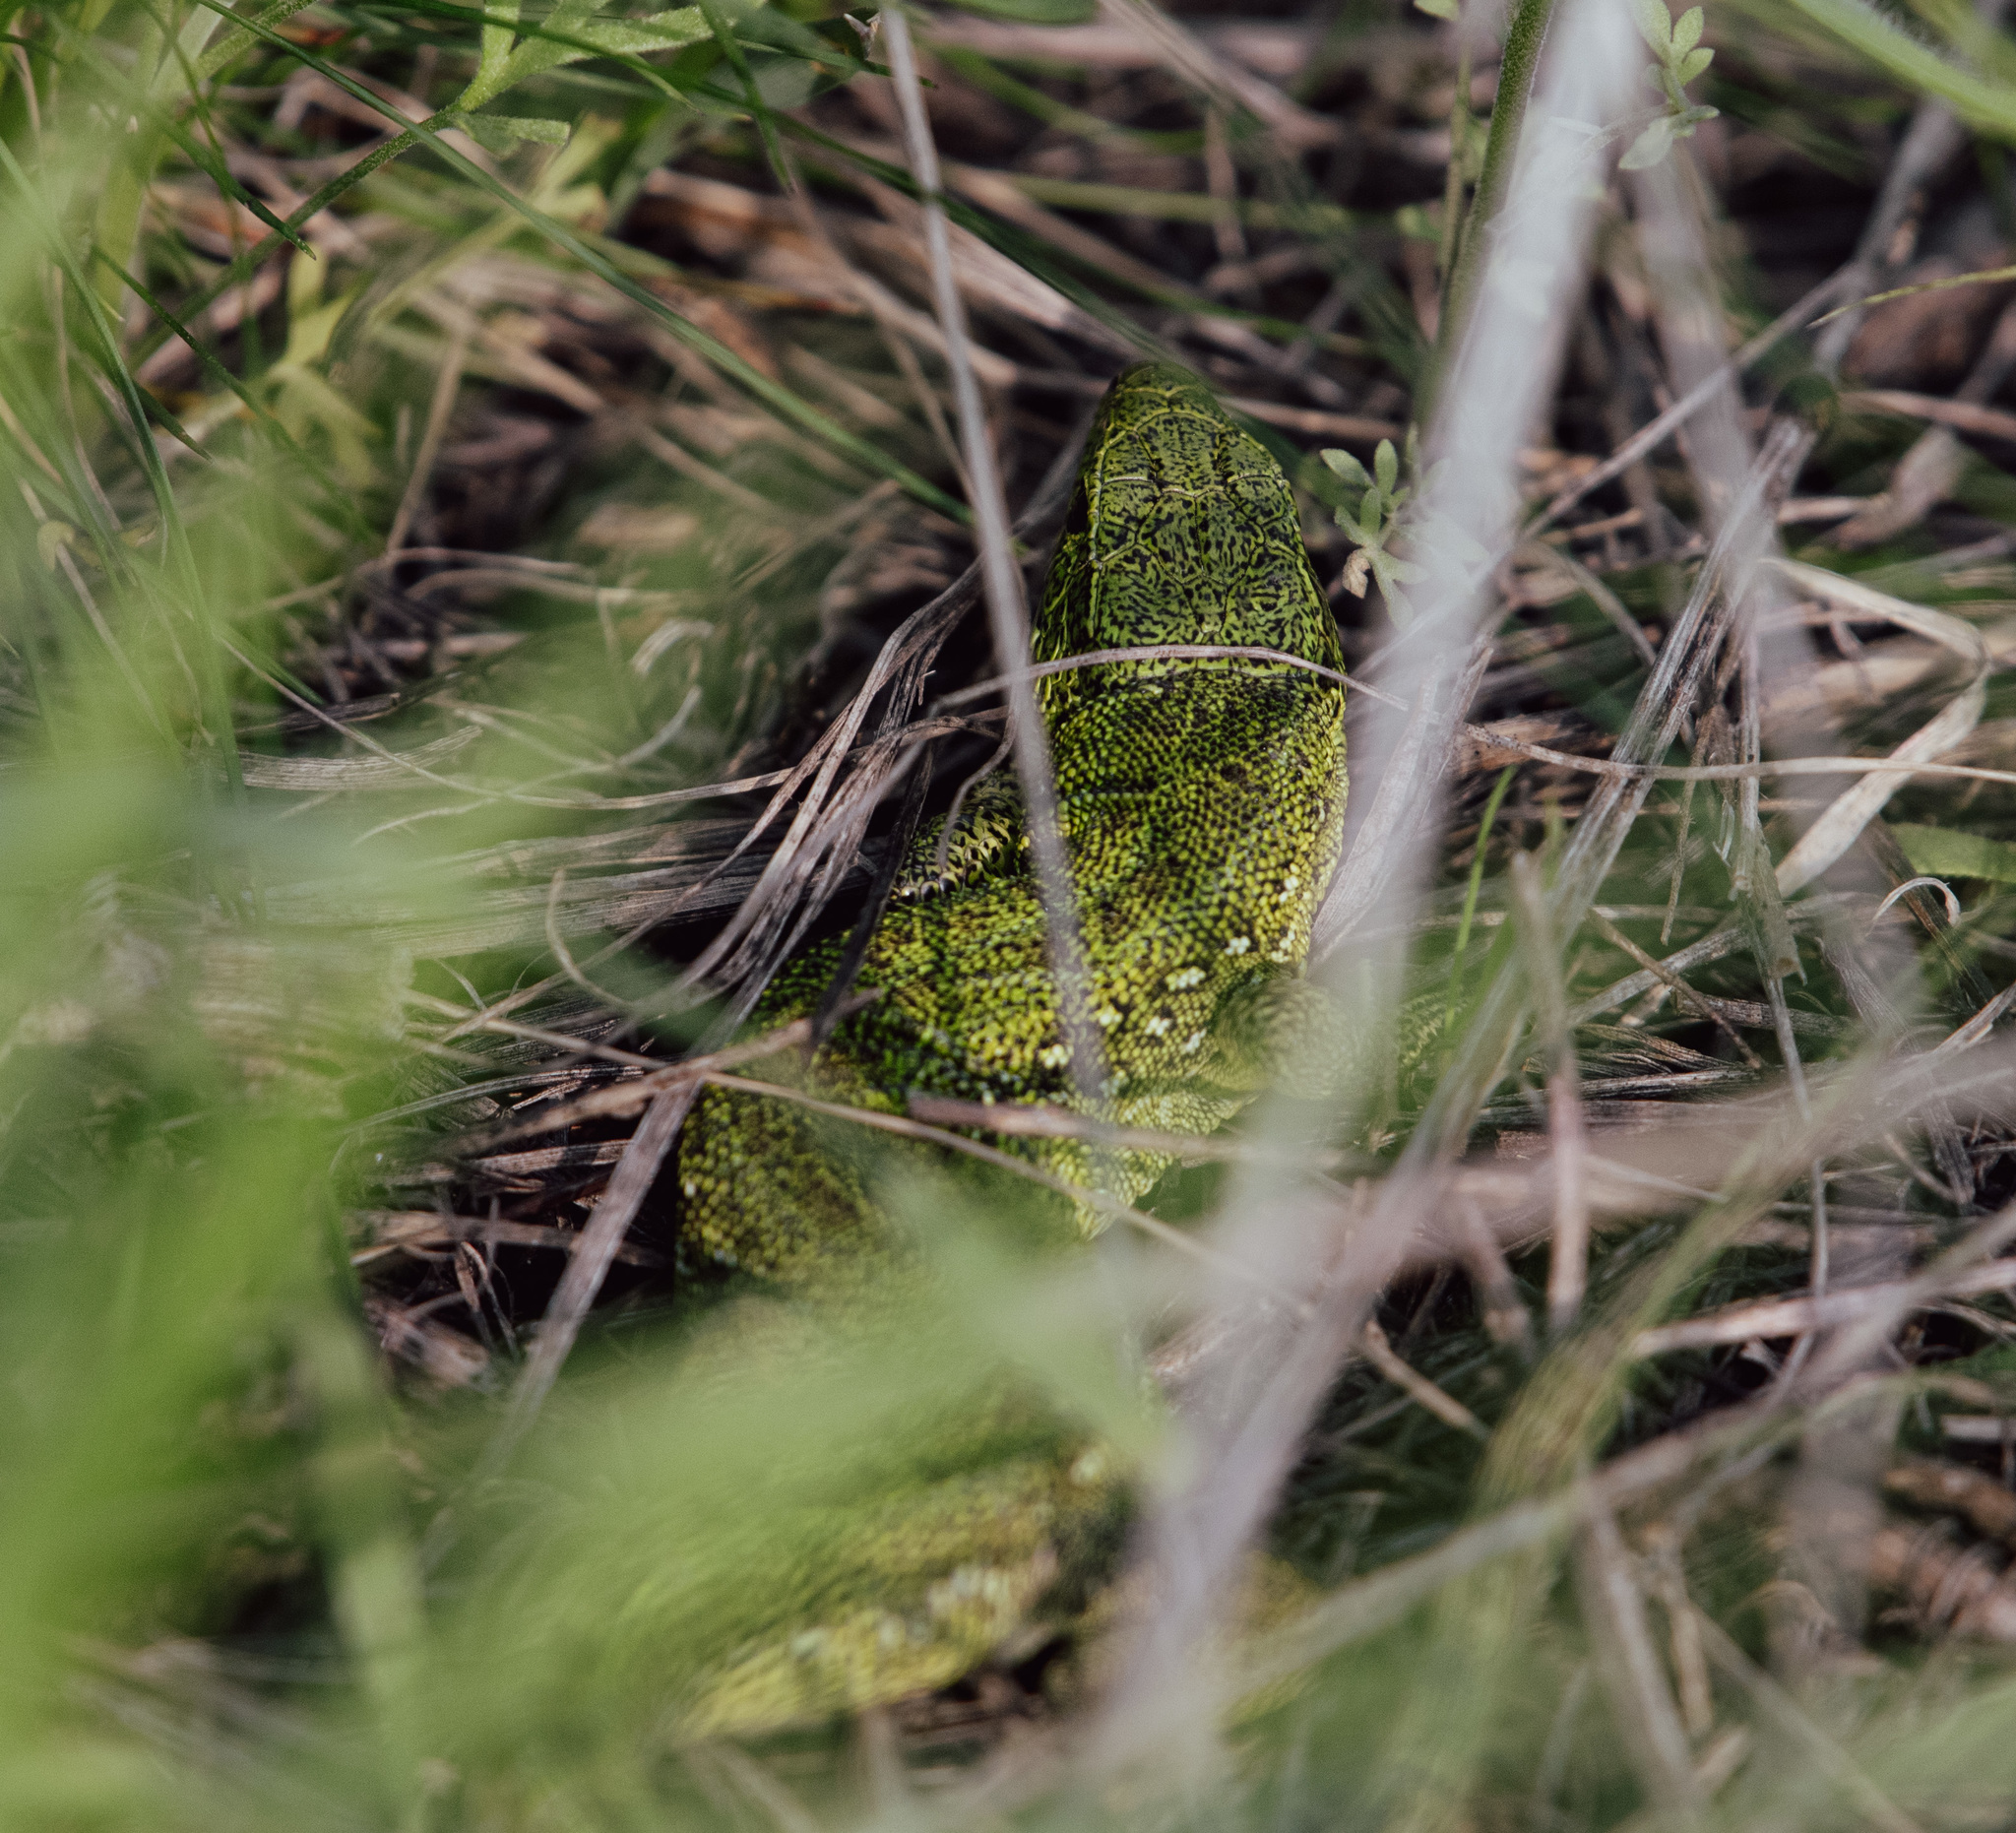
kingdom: Animalia
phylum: Chordata
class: Squamata
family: Lacertidae
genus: Lacerta
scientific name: Lacerta agilis
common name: Sand lizard
